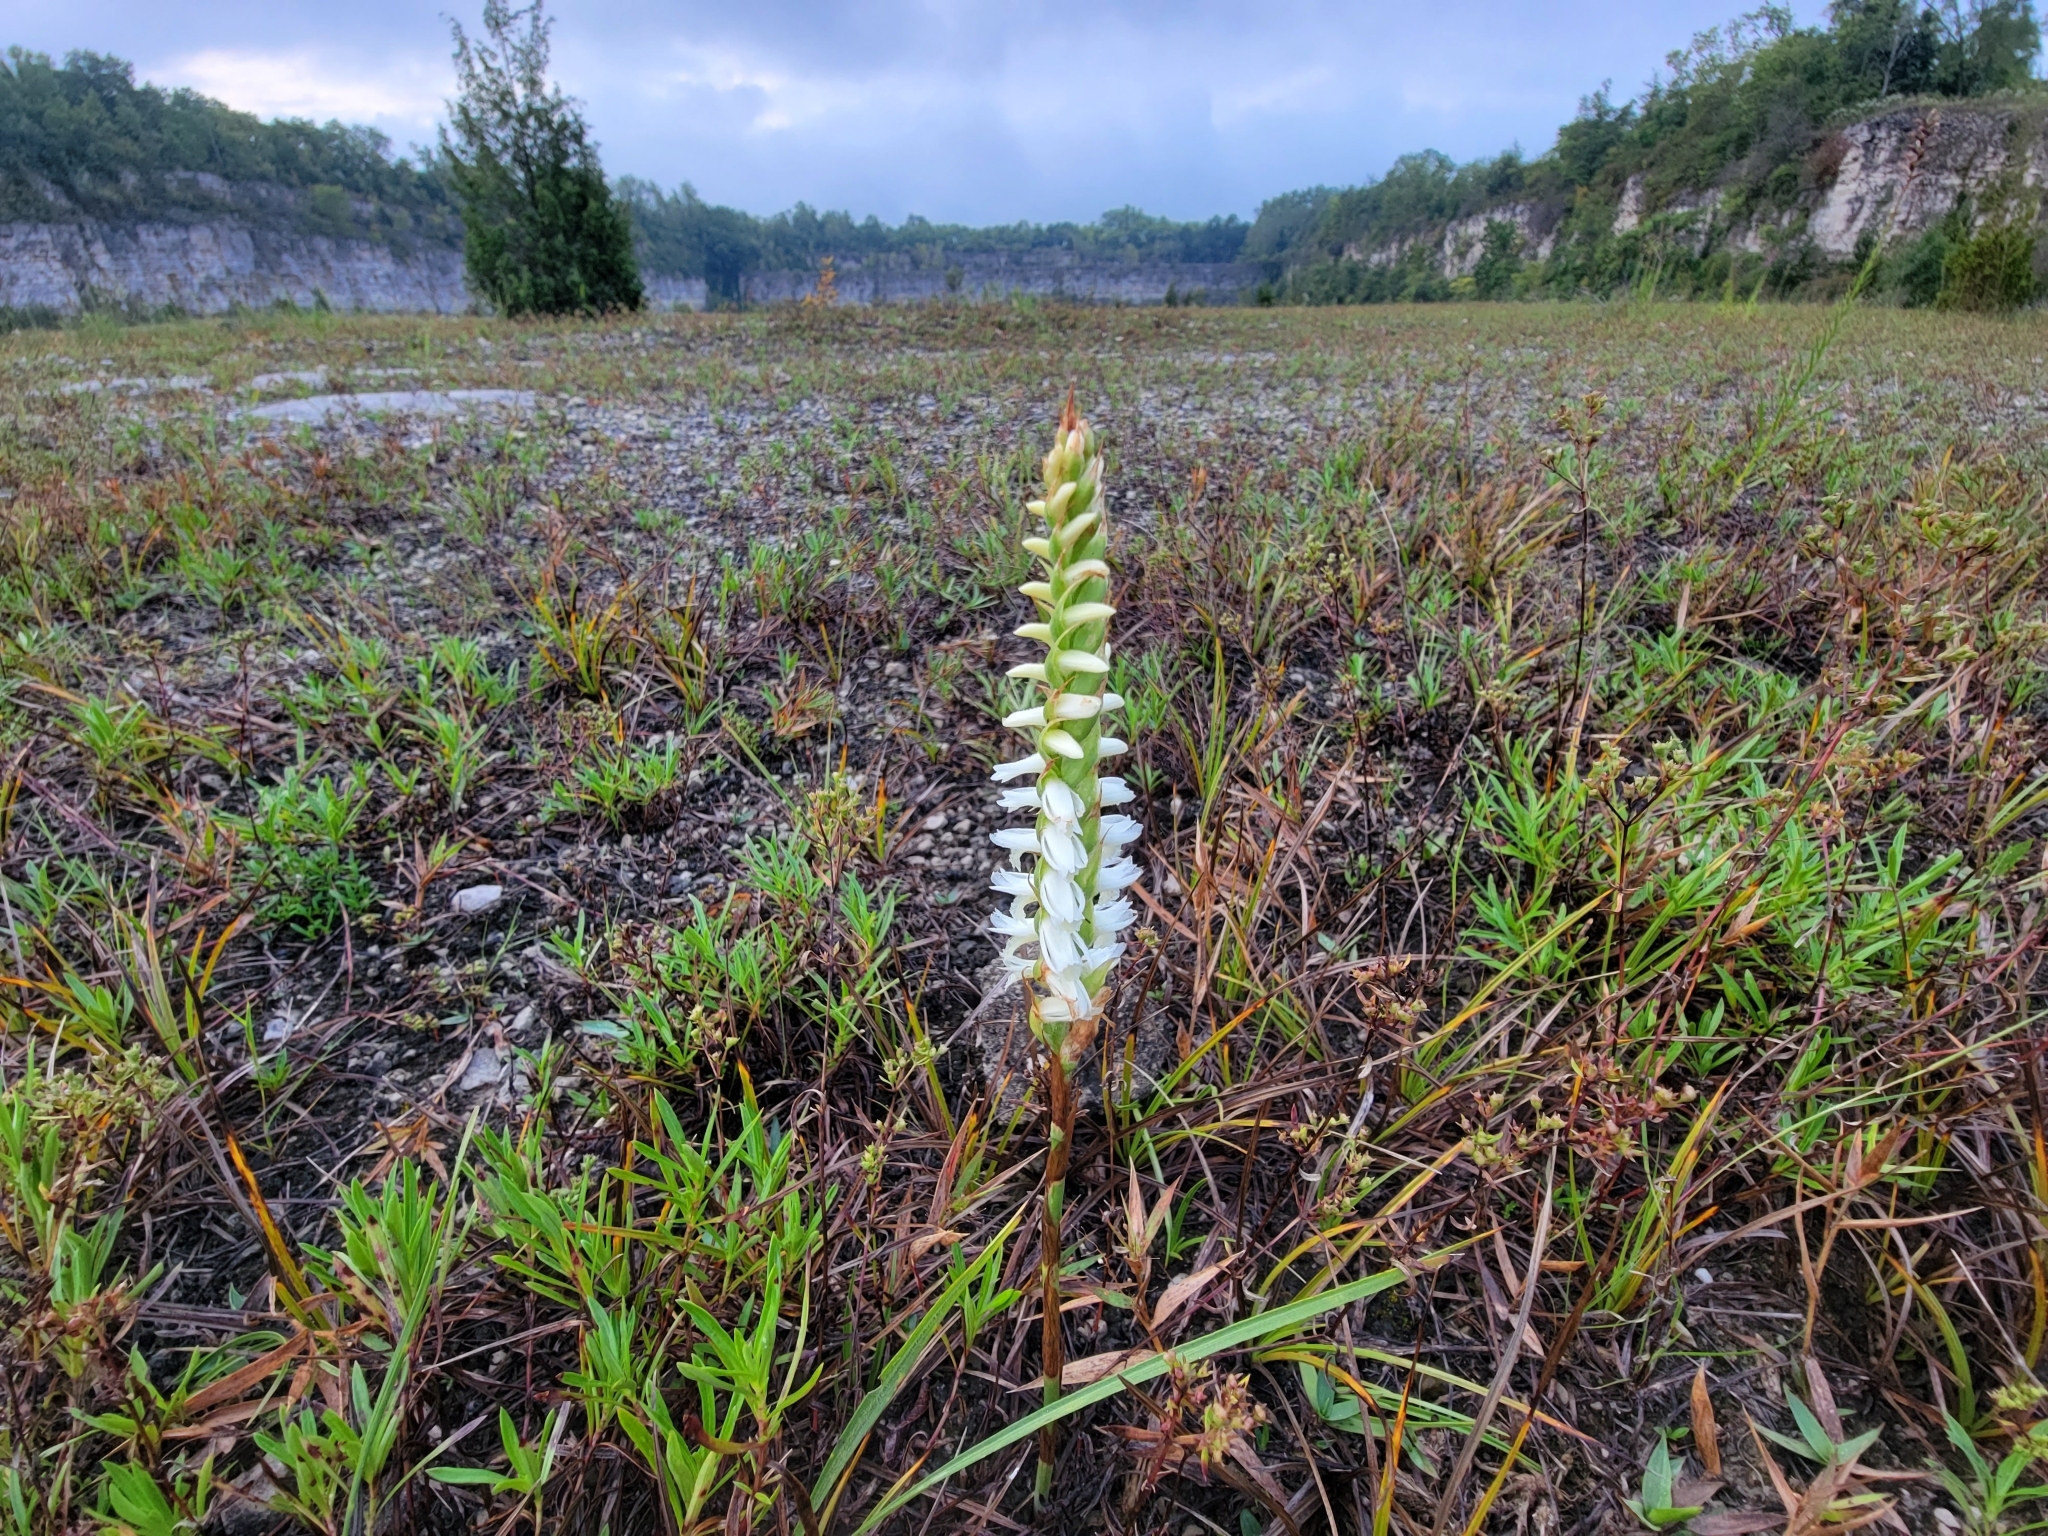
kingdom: Plantae
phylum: Tracheophyta
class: Liliopsida
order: Asparagales
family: Orchidaceae
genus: Spiranthes
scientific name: Spiranthes magnicamporum
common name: Great plains ladies'-tresses
